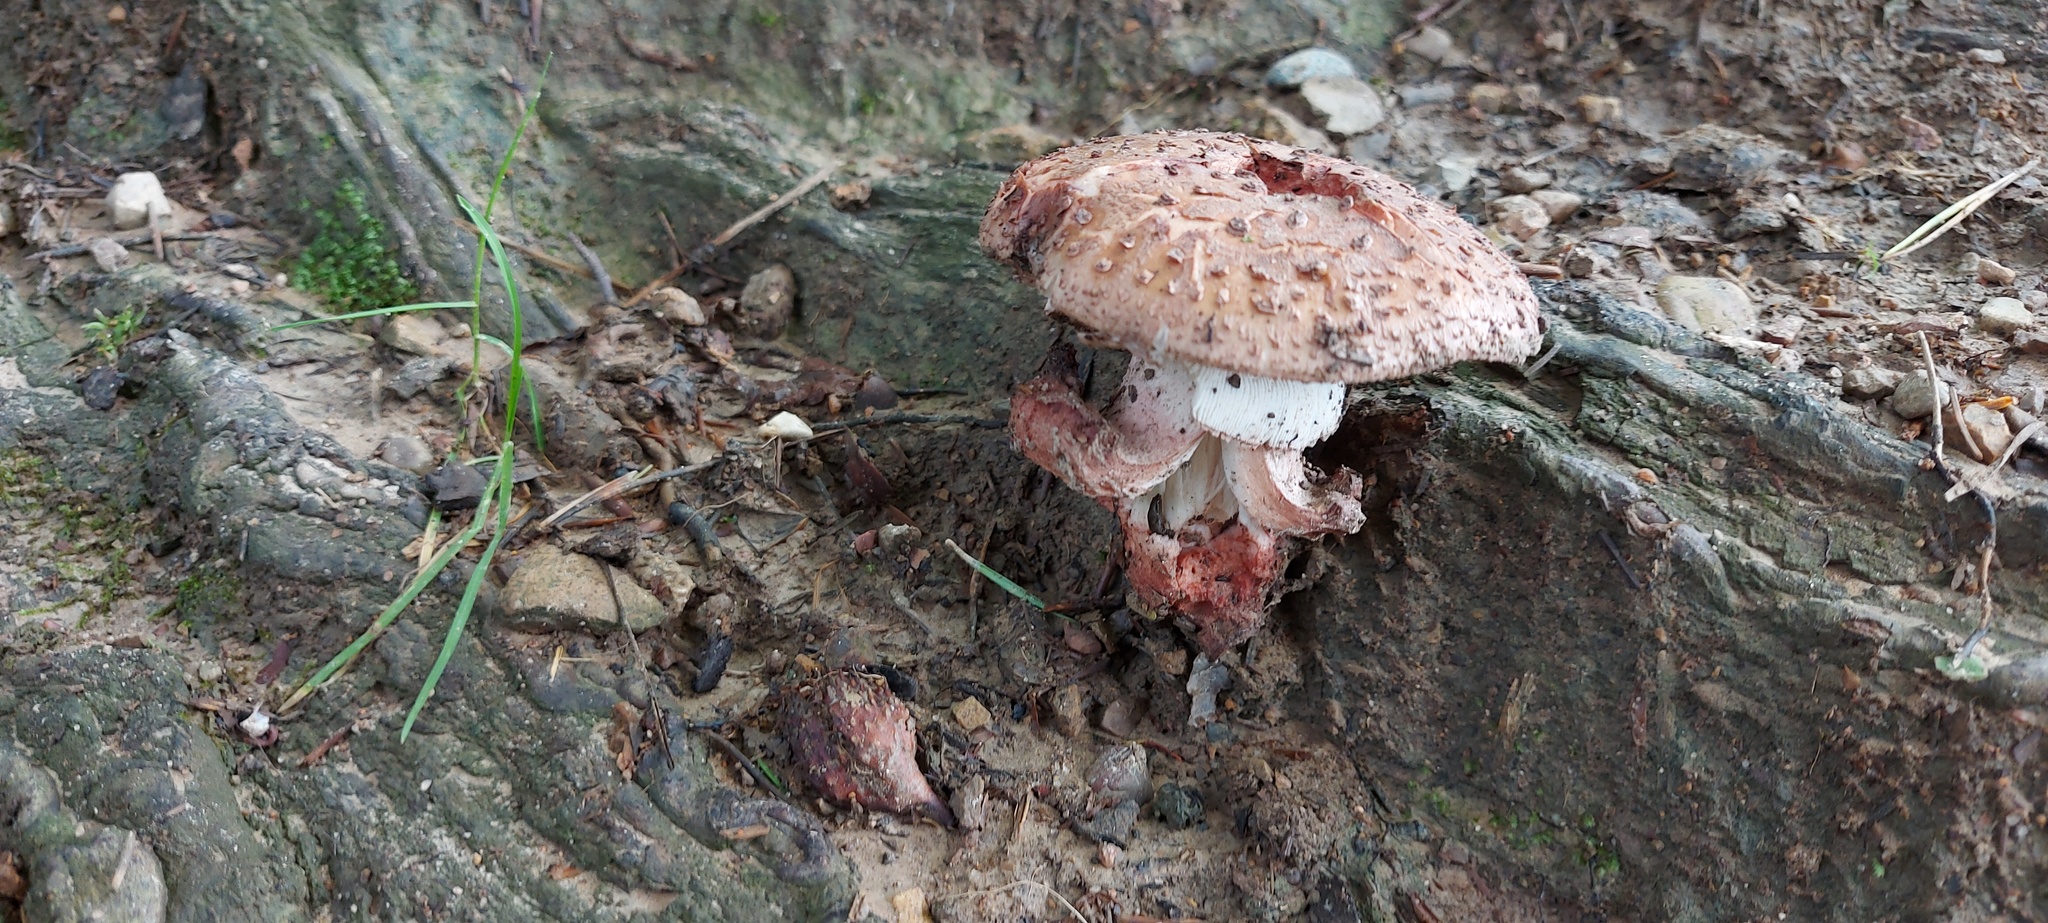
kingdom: Fungi
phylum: Basidiomycota
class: Agaricomycetes
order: Agaricales
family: Amanitaceae
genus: Amanita
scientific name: Amanita rubescens
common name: Blusher
